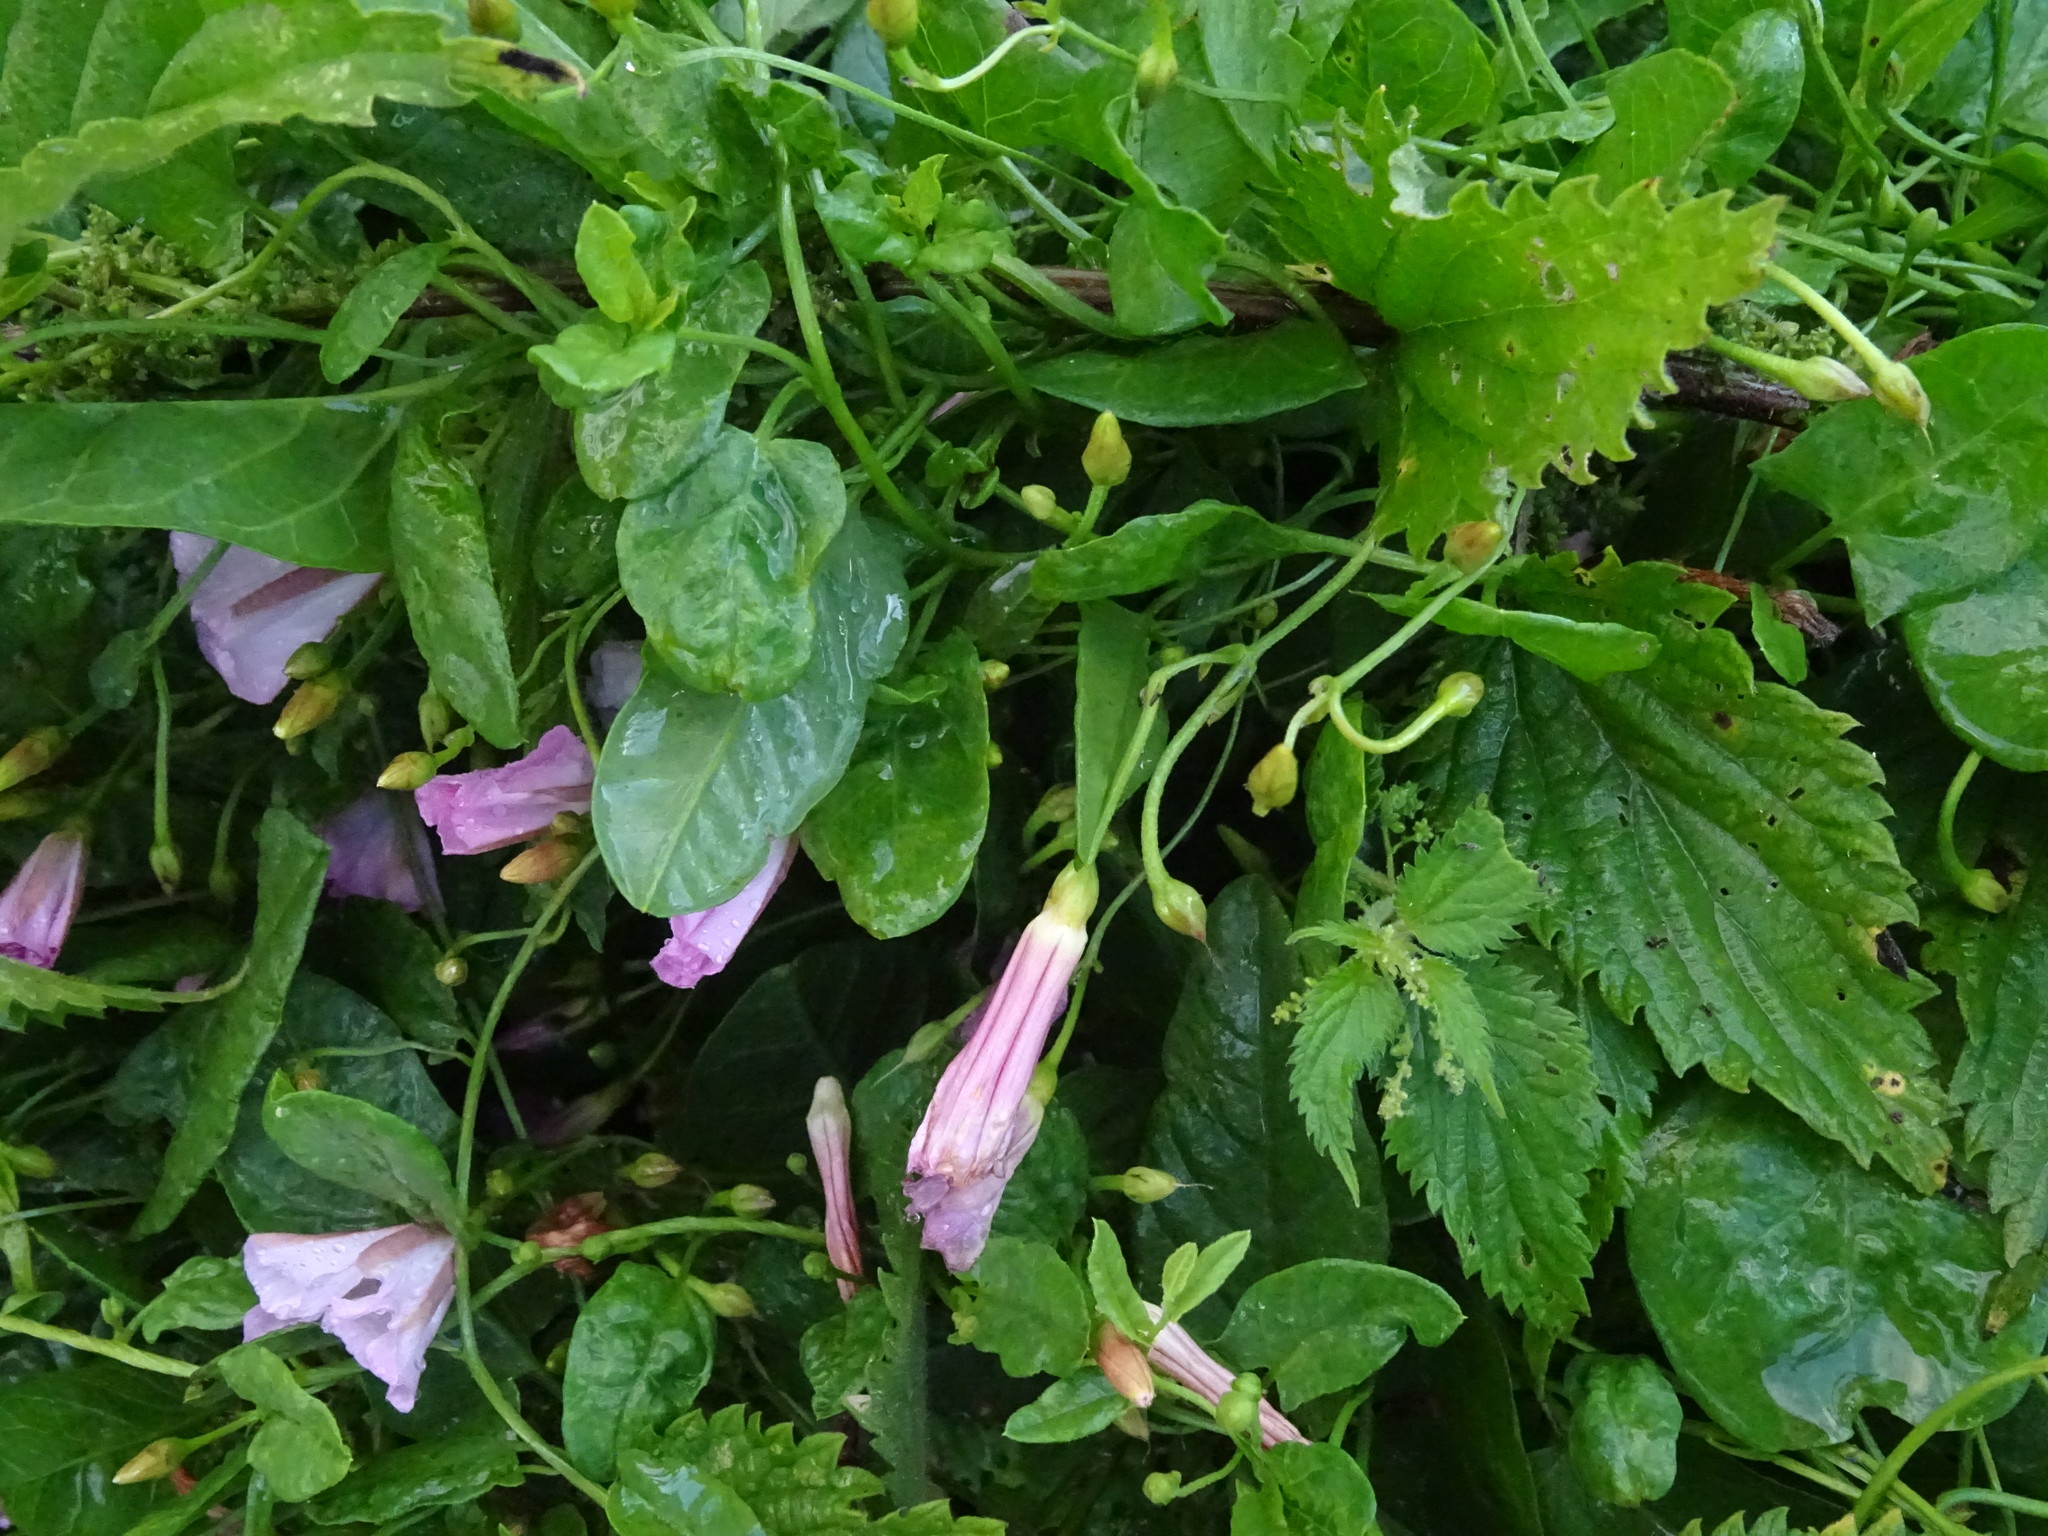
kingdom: Plantae
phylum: Tracheophyta
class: Magnoliopsida
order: Solanales
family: Convolvulaceae
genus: Convolvulus
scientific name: Convolvulus arvensis
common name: Field bindweed
